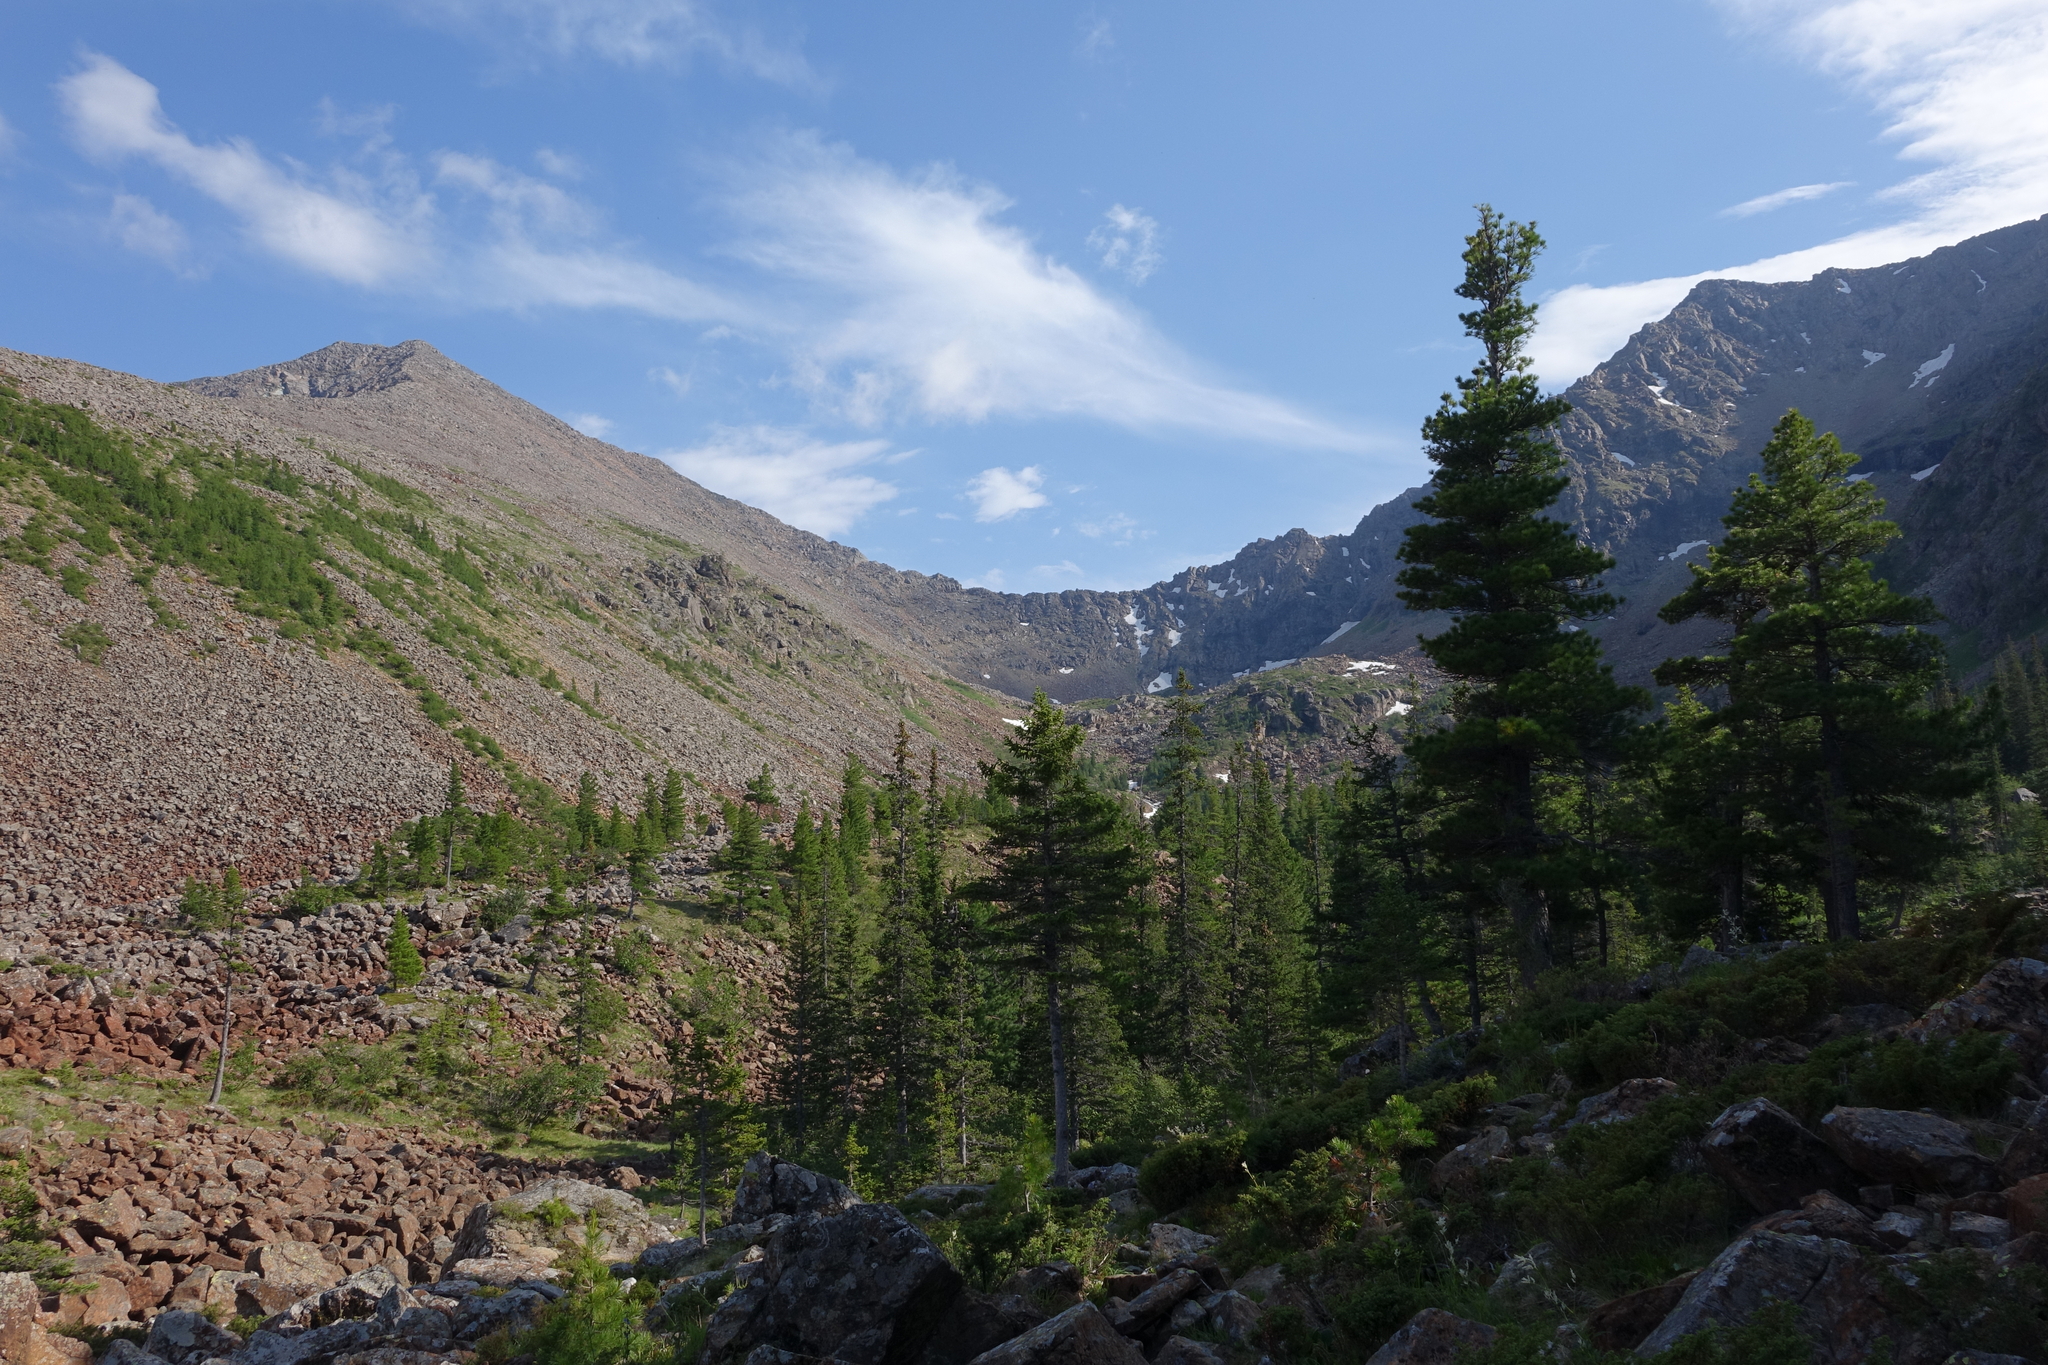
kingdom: Plantae
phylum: Tracheophyta
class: Pinopsida
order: Pinales
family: Pinaceae
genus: Pinus
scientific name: Pinus sibirica
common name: Siberian pine
